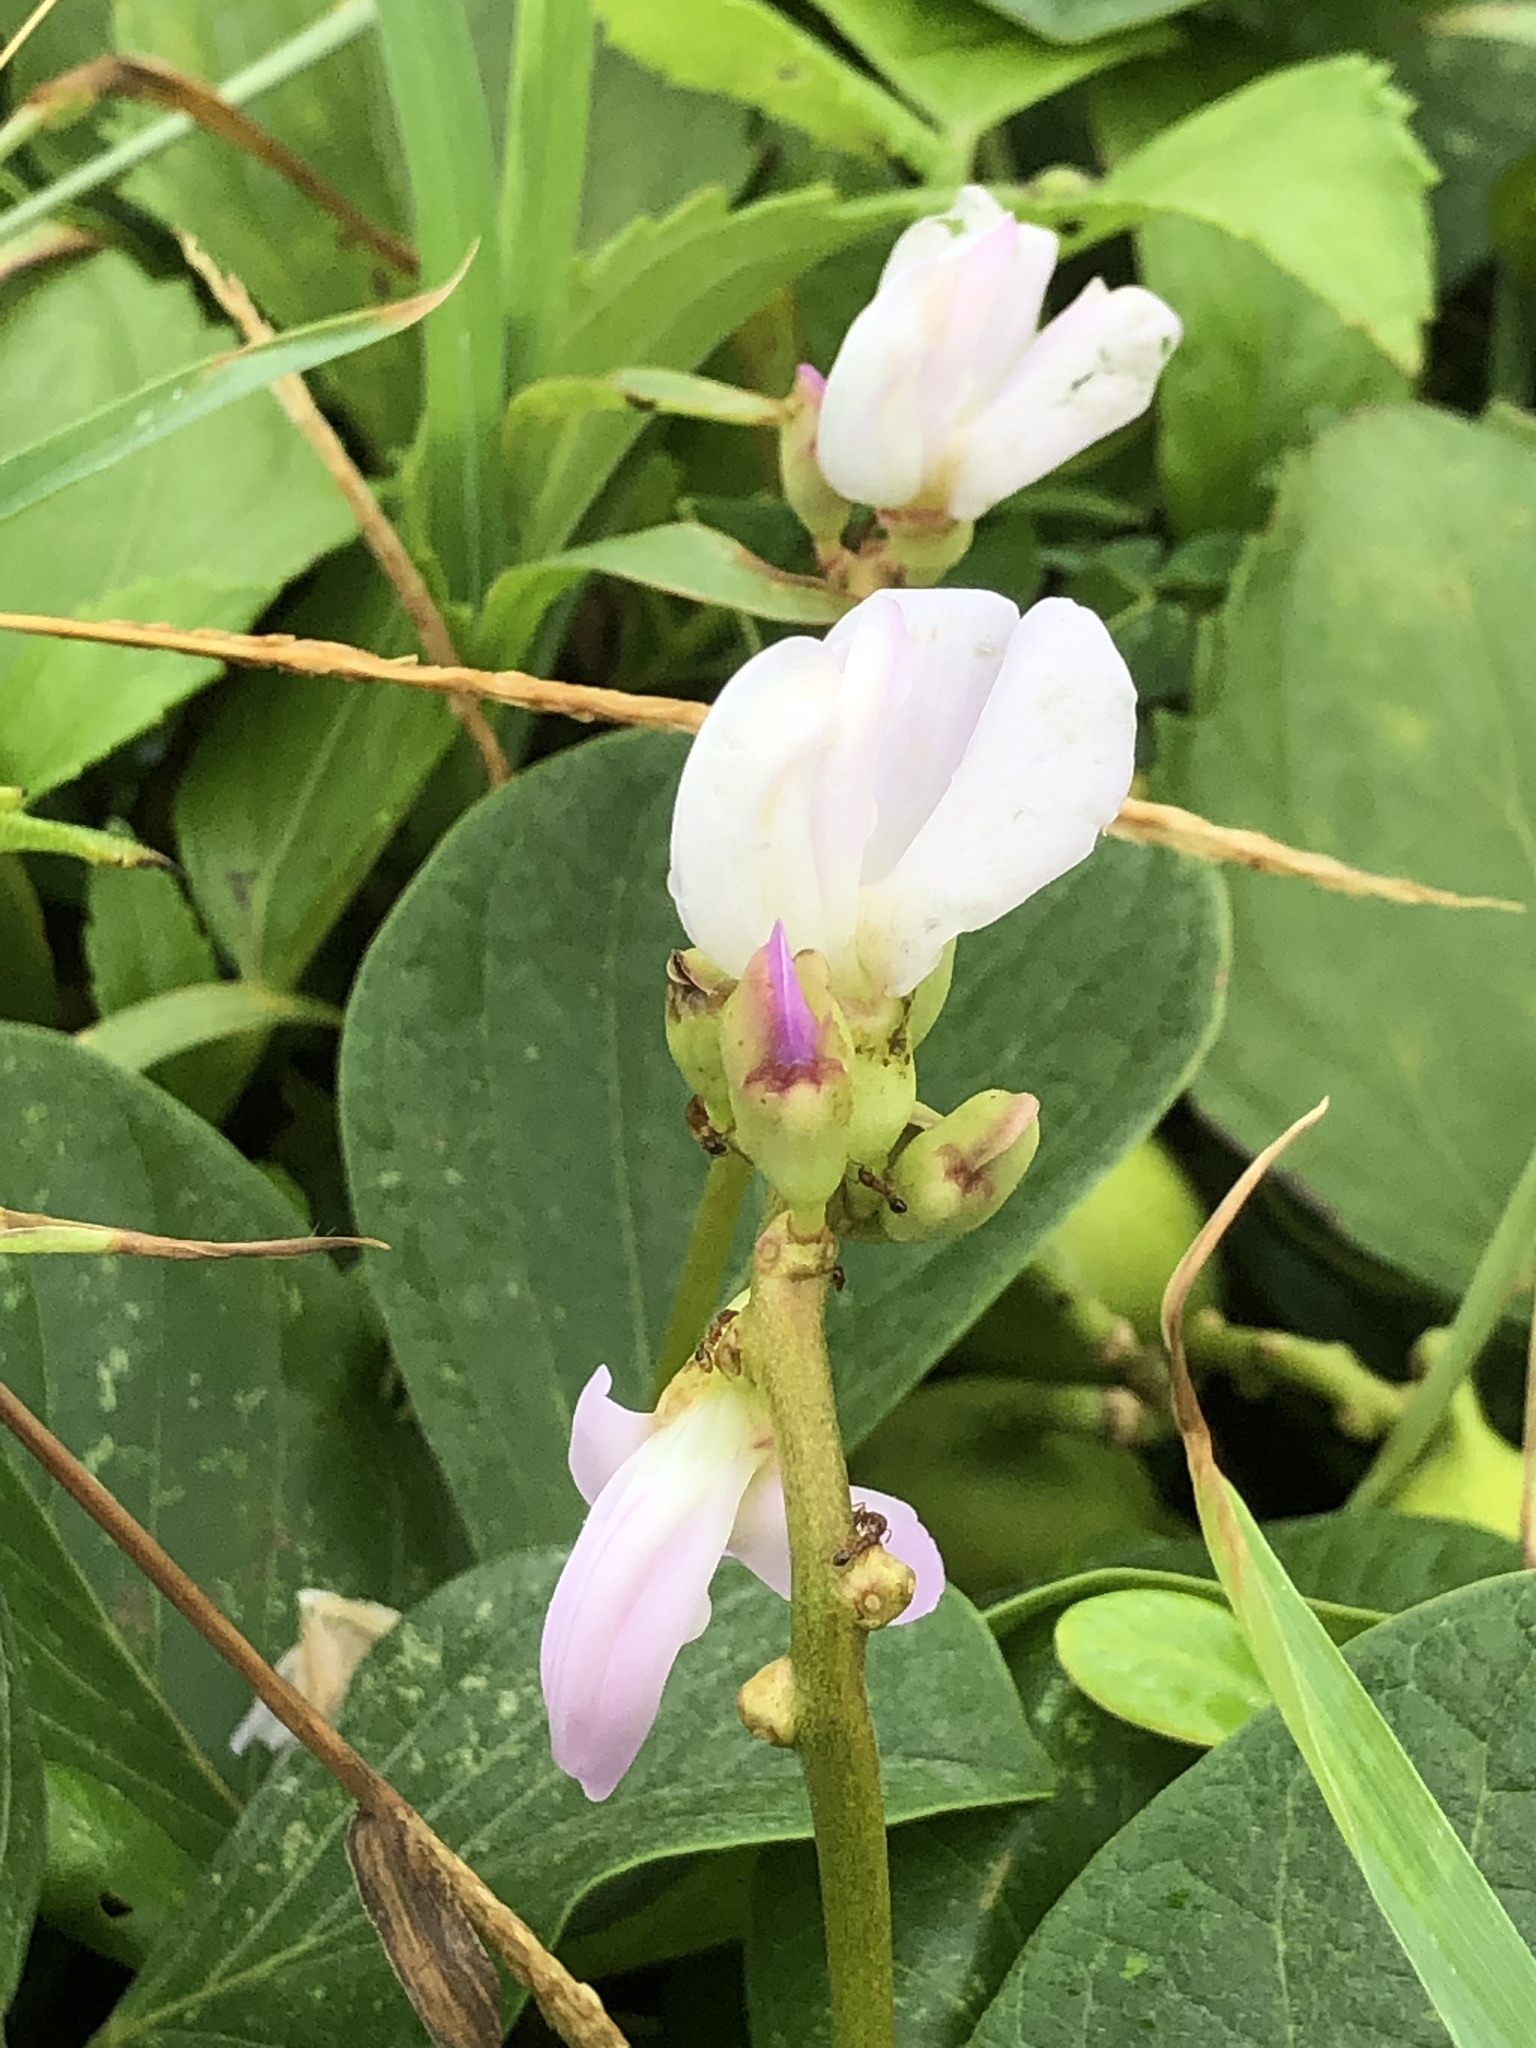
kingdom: Plantae
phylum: Tracheophyta
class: Magnoliopsida
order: Fabales
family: Fabaceae
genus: Canavalia
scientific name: Canavalia lineata
